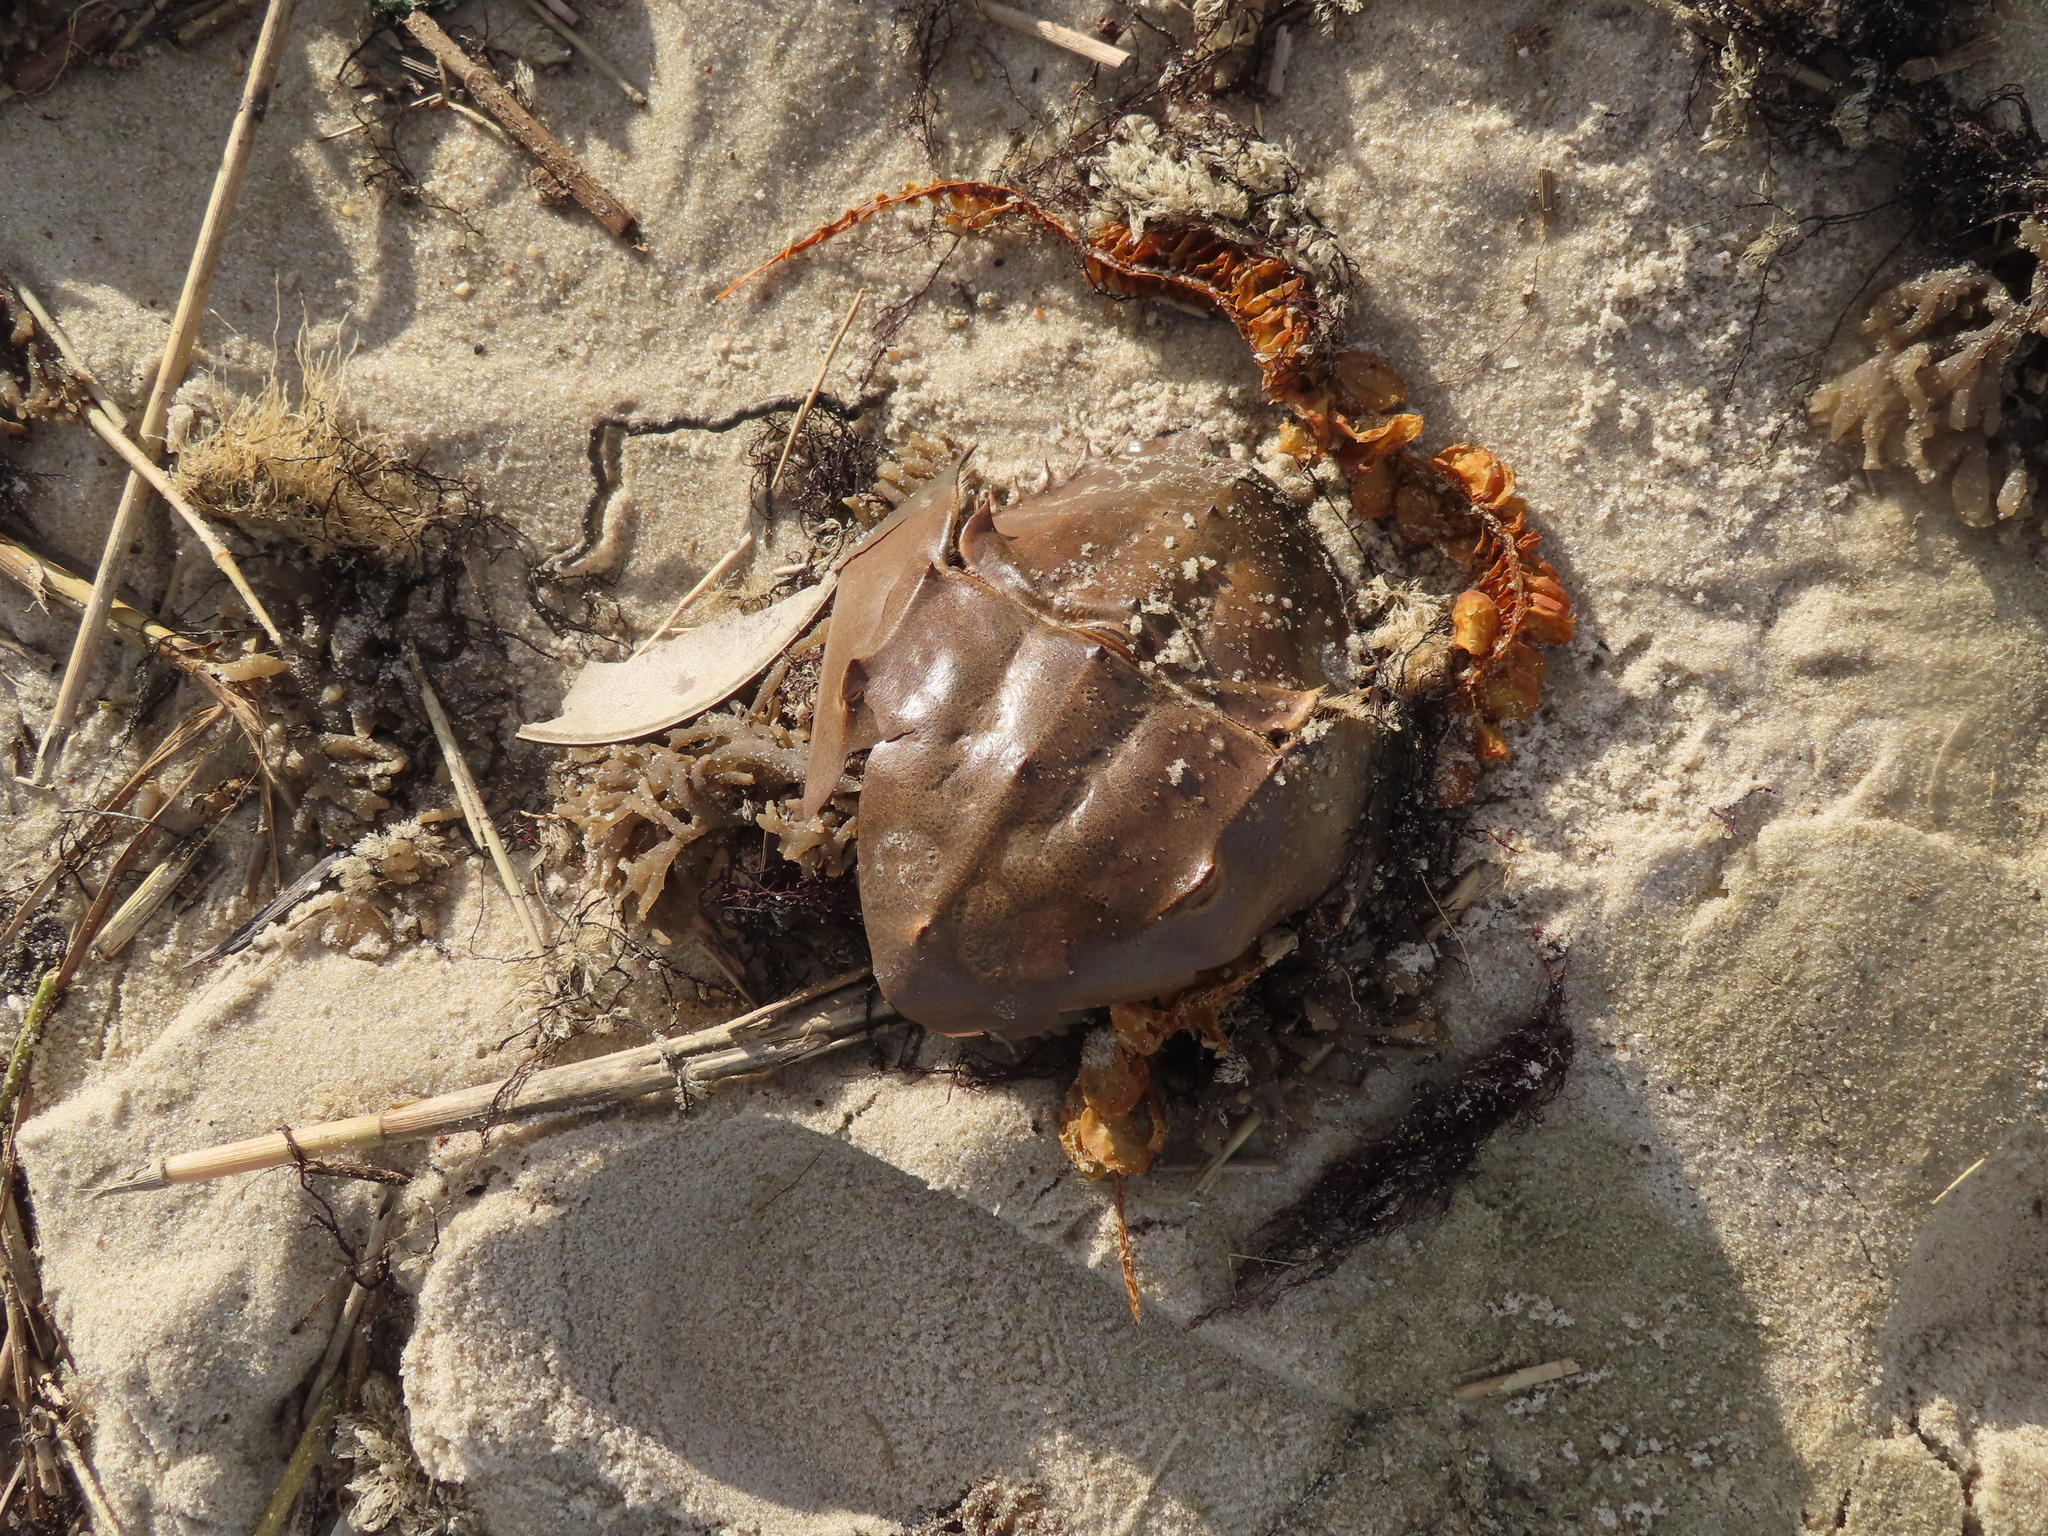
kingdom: Animalia
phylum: Arthropoda
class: Merostomata
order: Xiphosurida
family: Limulidae
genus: Limulus
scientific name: Limulus polyphemus
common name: Horseshoe crab
